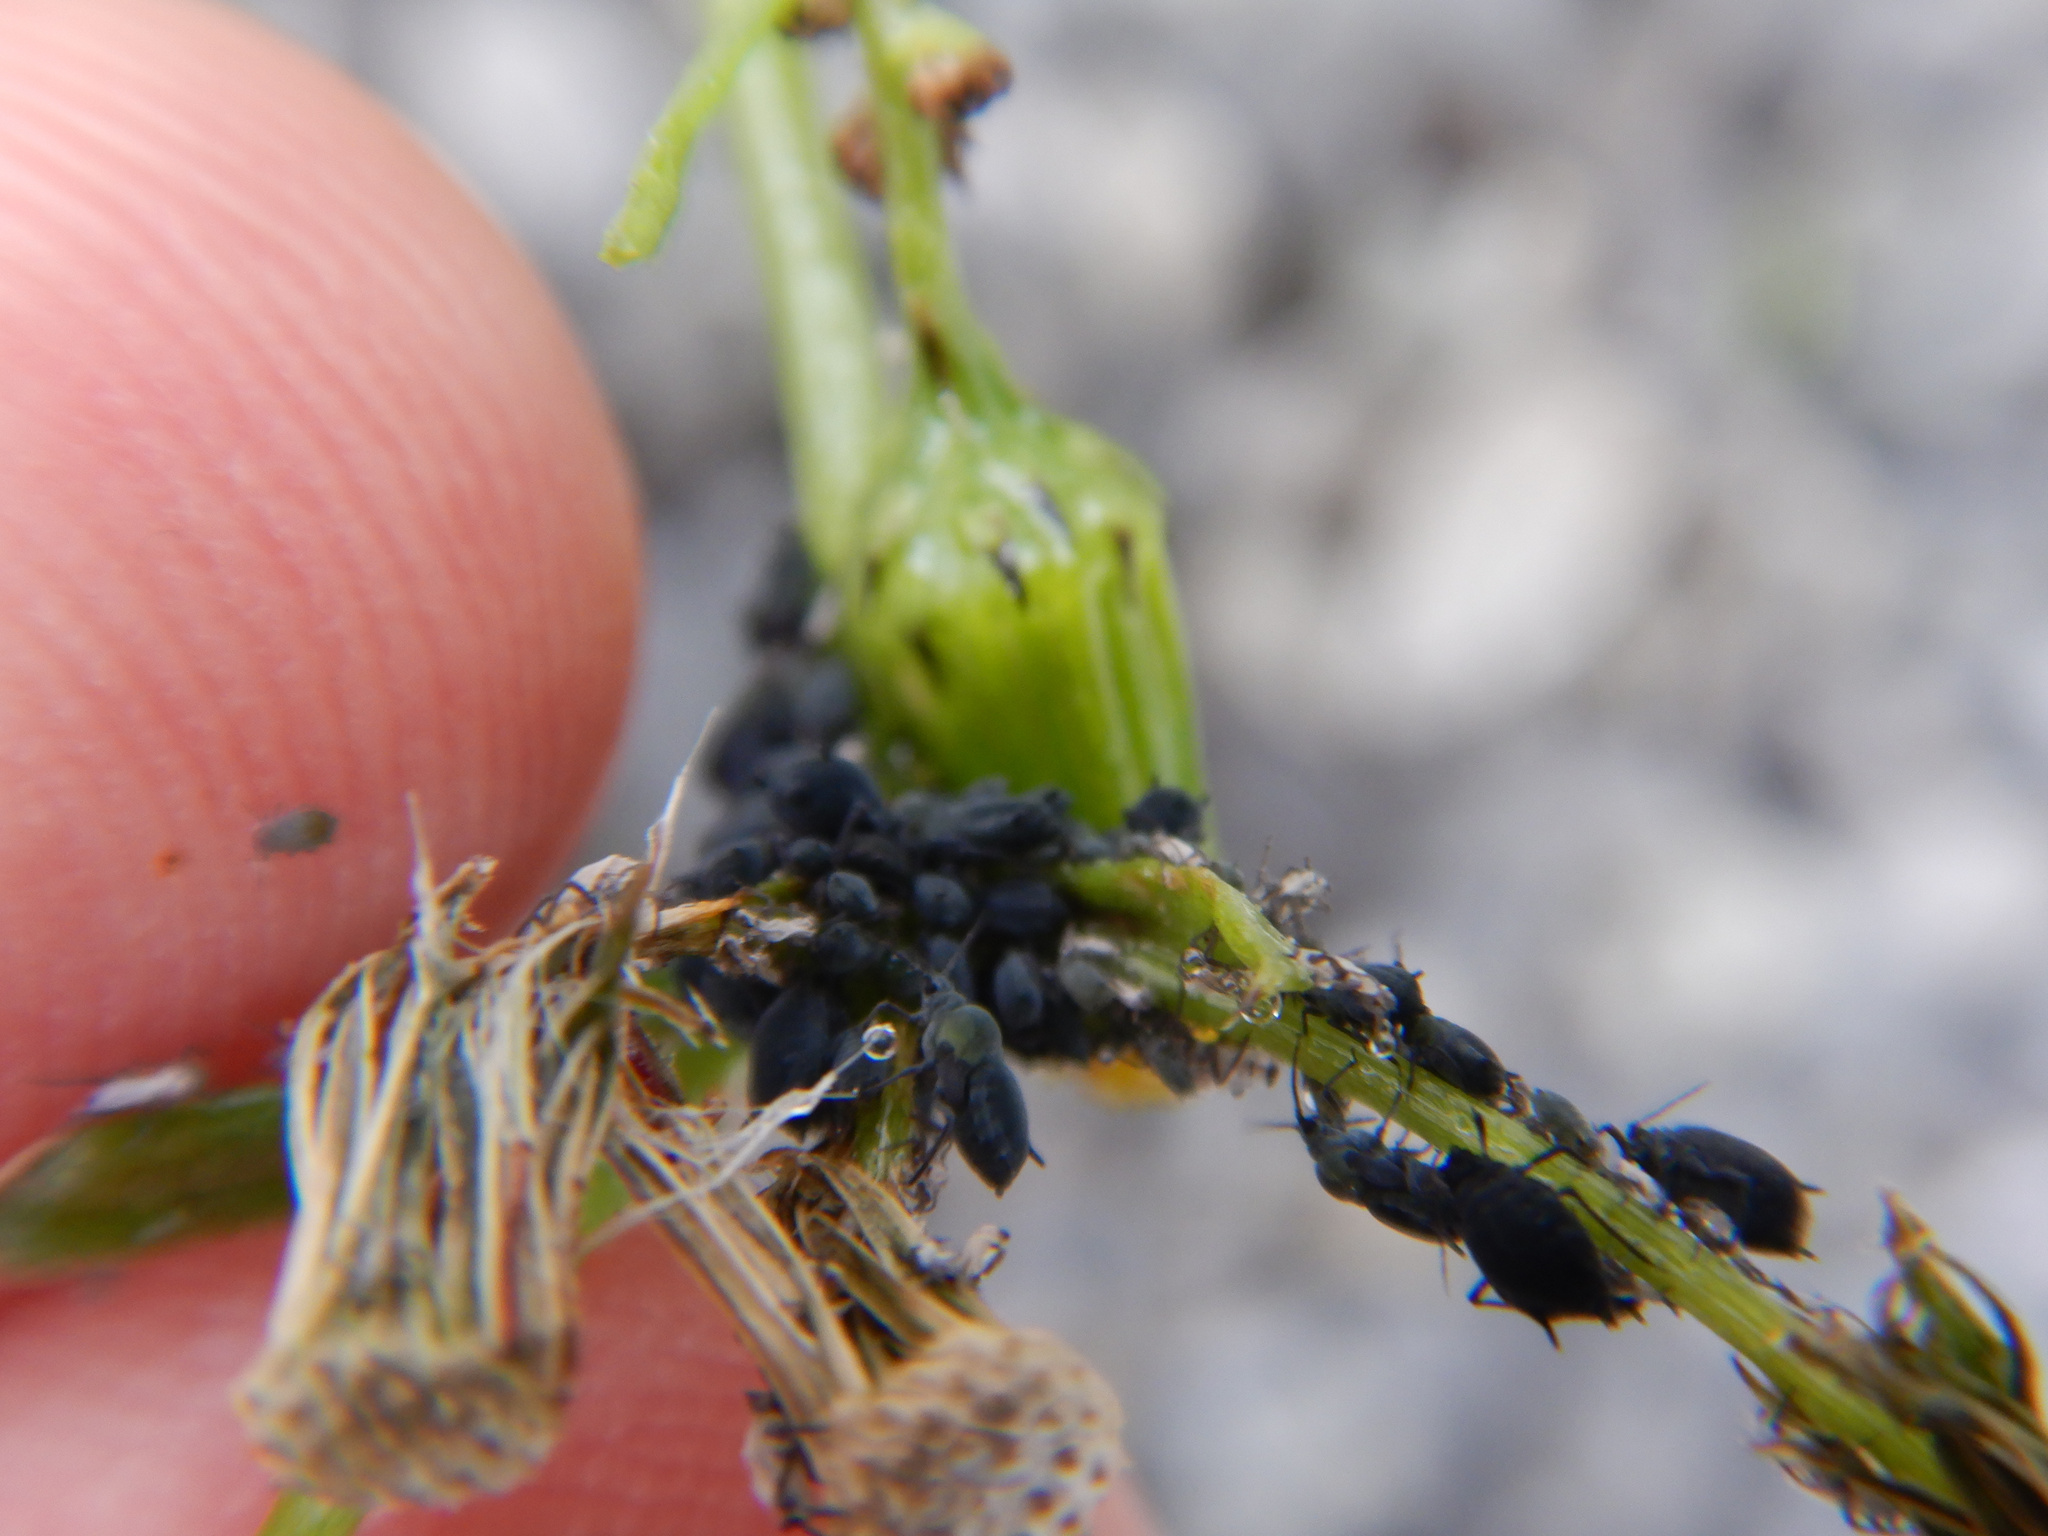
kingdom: Animalia
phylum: Arthropoda
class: Insecta
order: Hemiptera
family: Aphididae
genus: Aphis
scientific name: Aphis lugentis
